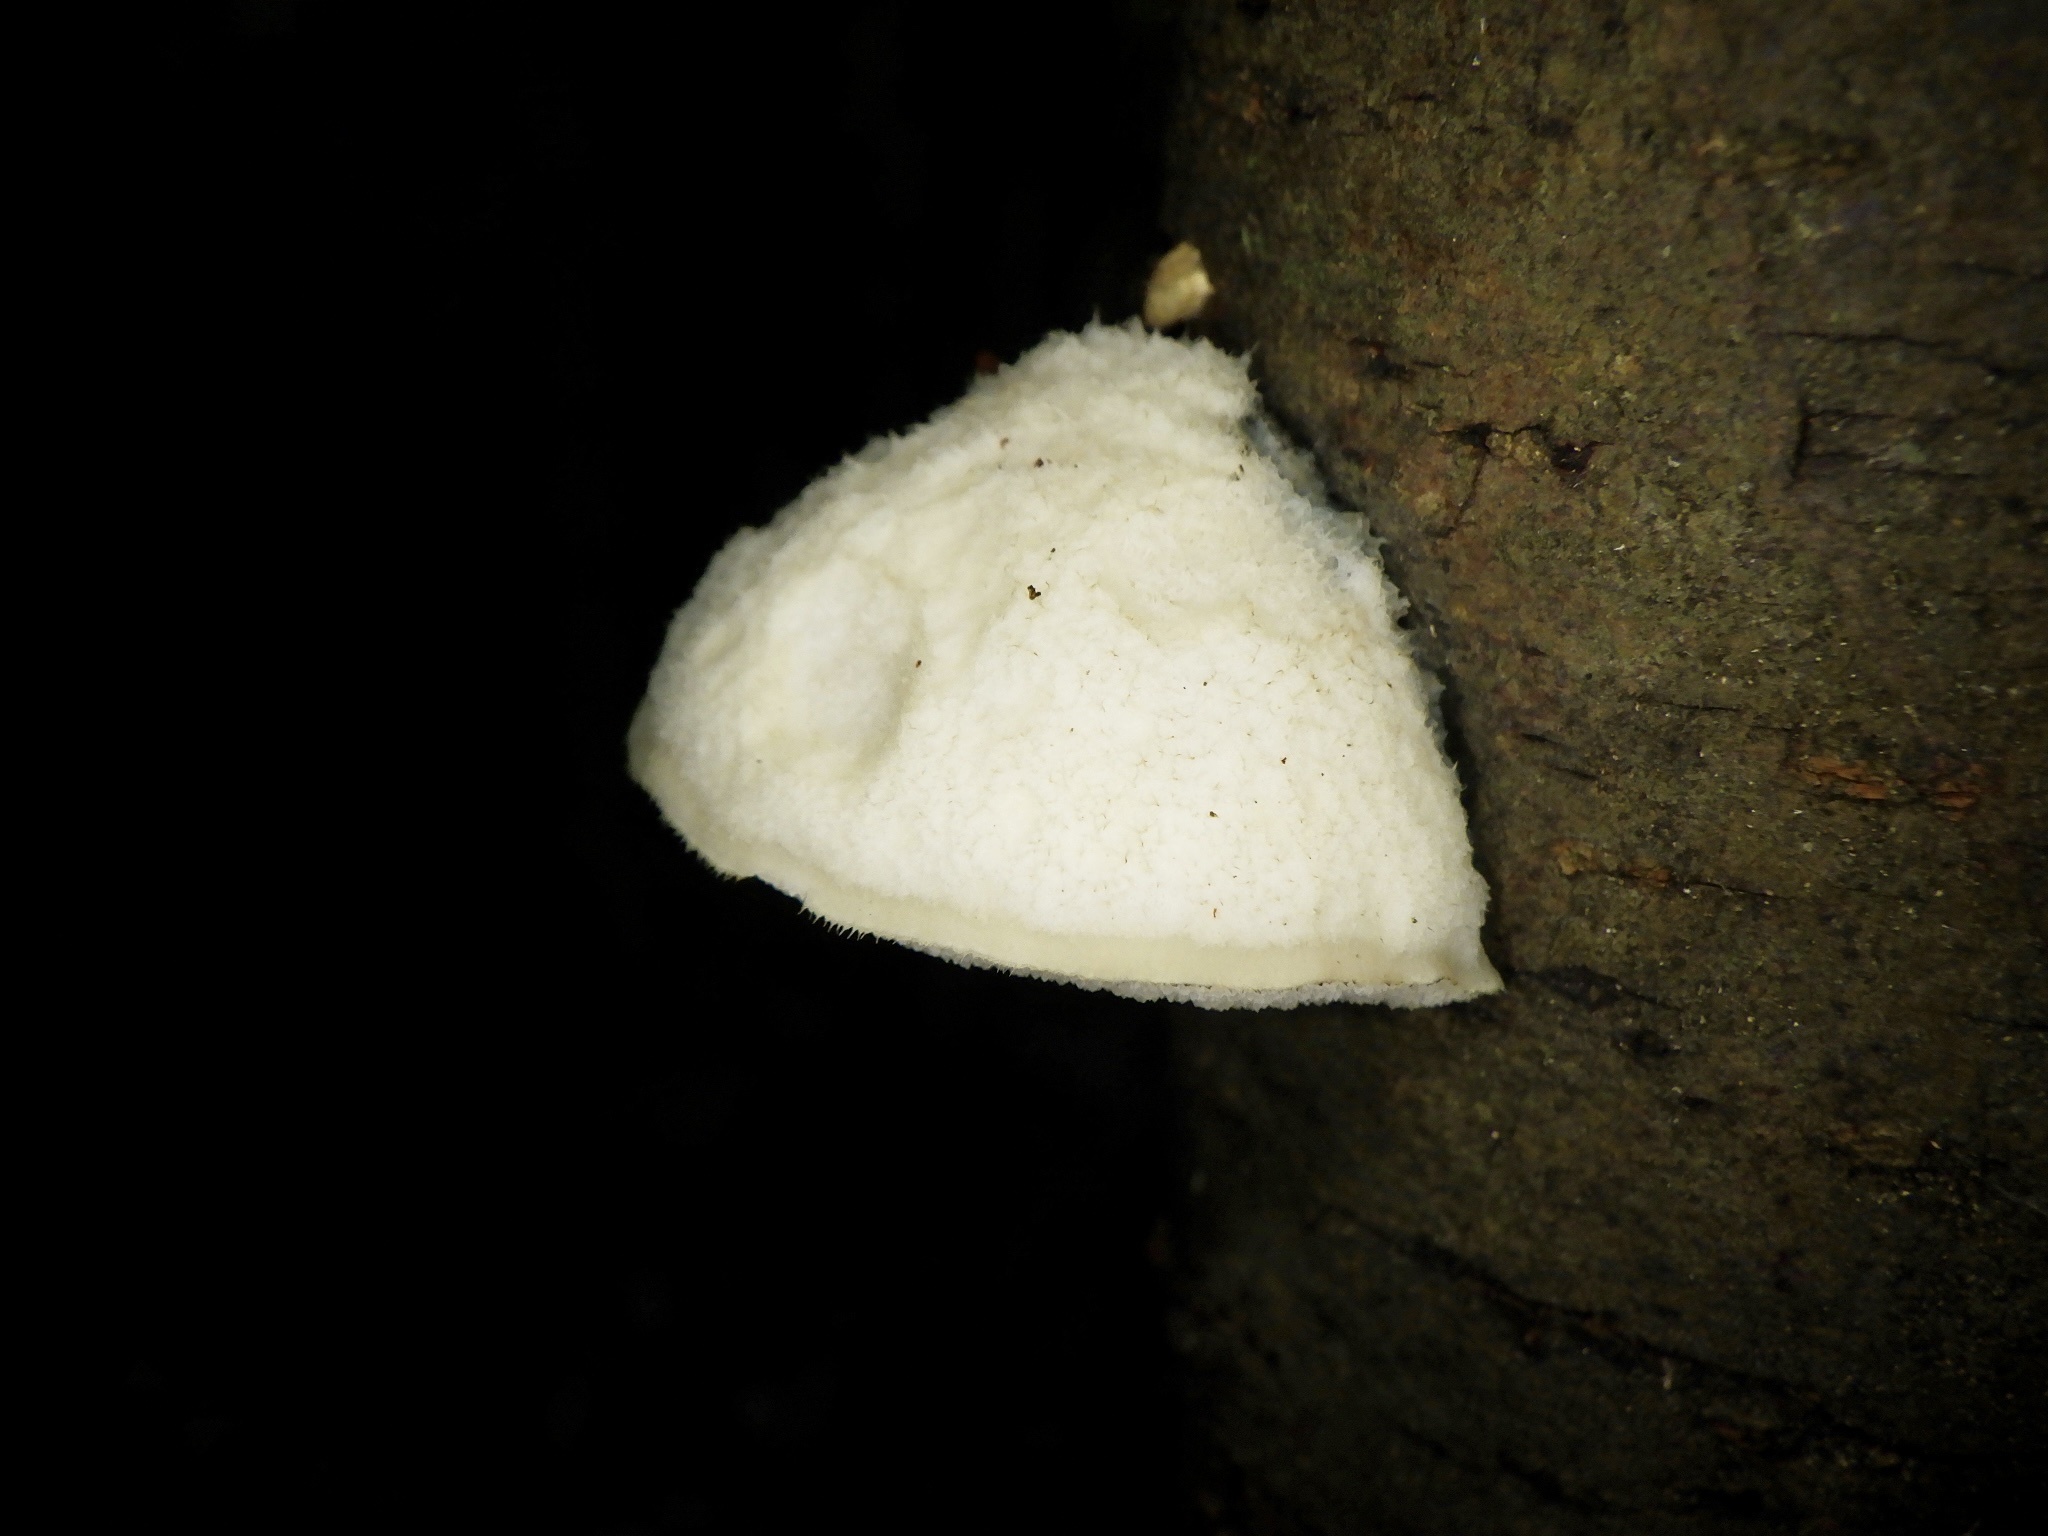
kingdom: Fungi
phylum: Basidiomycota
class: Agaricomycetes
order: Polyporales
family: Incrustoporiaceae
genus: Tyromyces
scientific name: Tyromyces chioneus
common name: White cheese polypore
